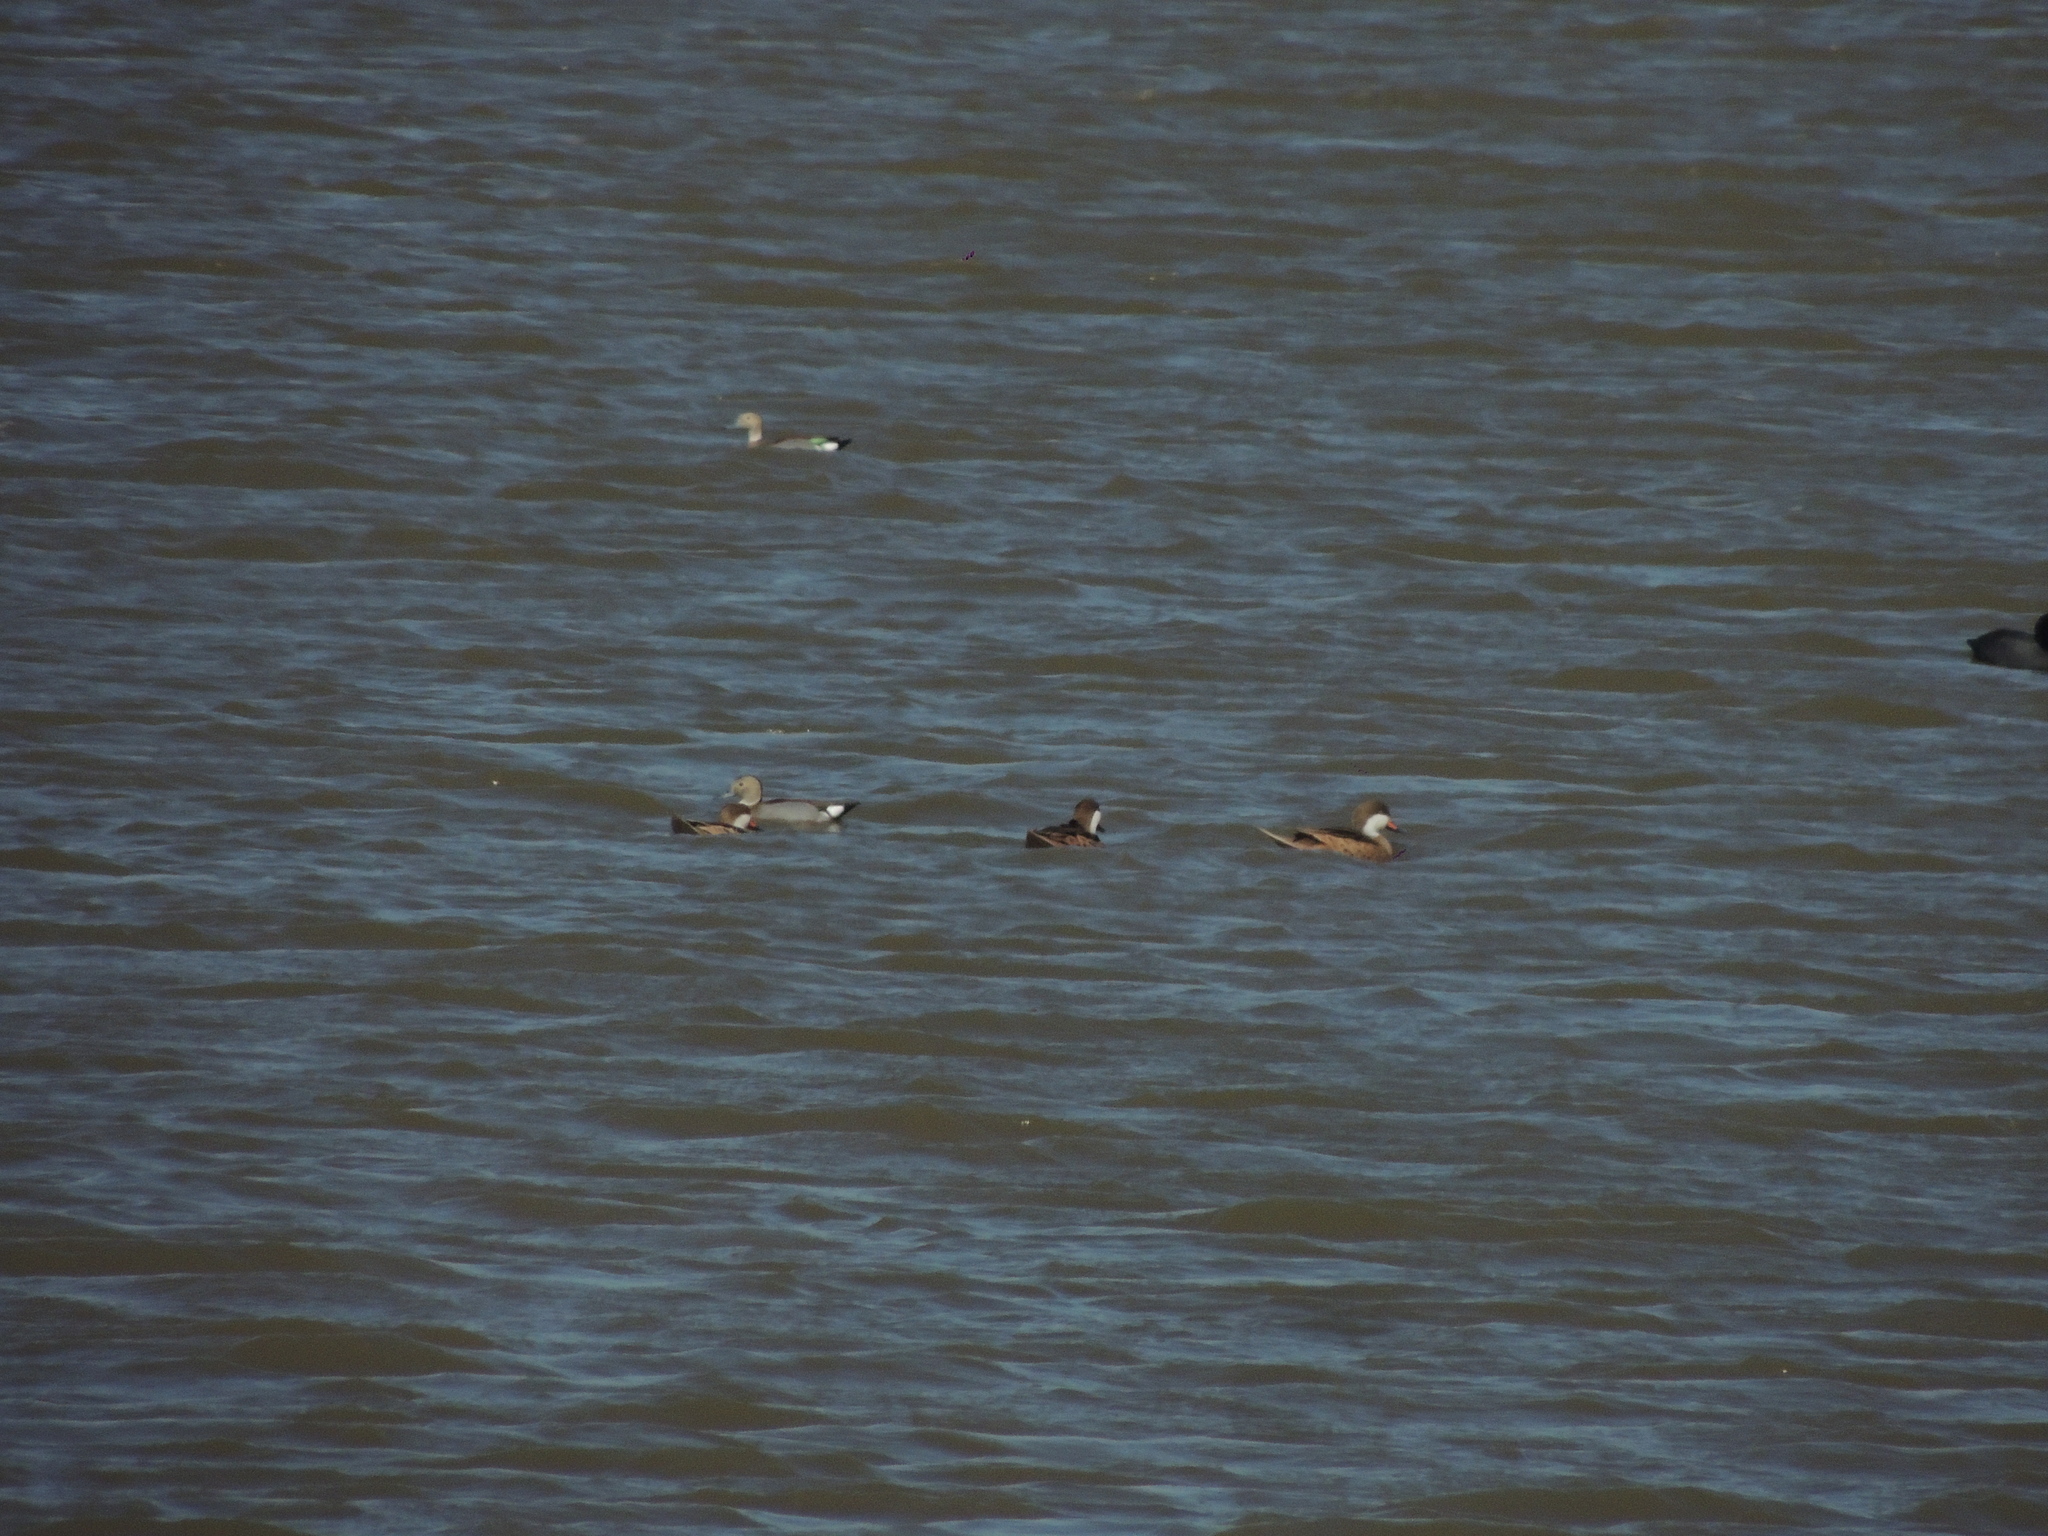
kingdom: Animalia
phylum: Chordata
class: Aves
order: Anseriformes
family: Anatidae
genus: Callonetta
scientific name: Callonetta leucophrys
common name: Ringed teal
